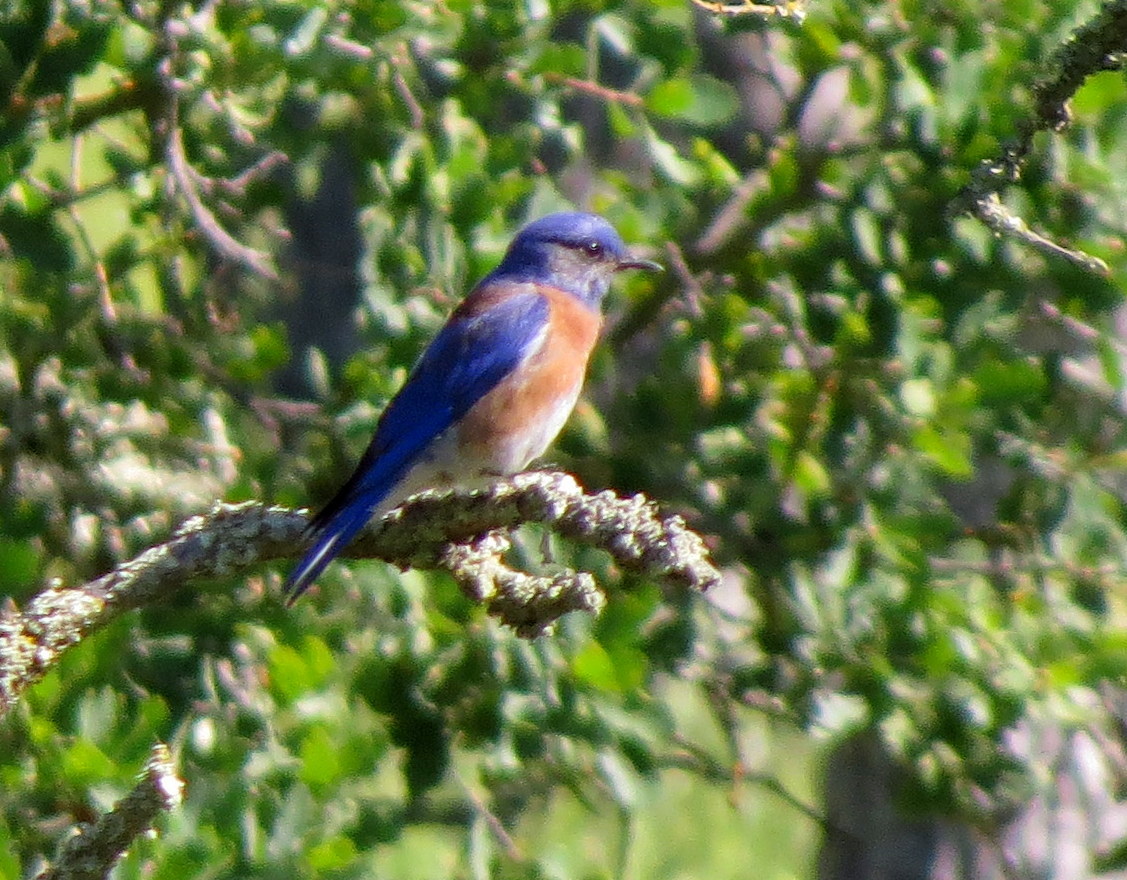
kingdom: Animalia
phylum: Chordata
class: Aves
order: Passeriformes
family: Turdidae
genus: Sialia
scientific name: Sialia mexicana
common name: Western bluebird
